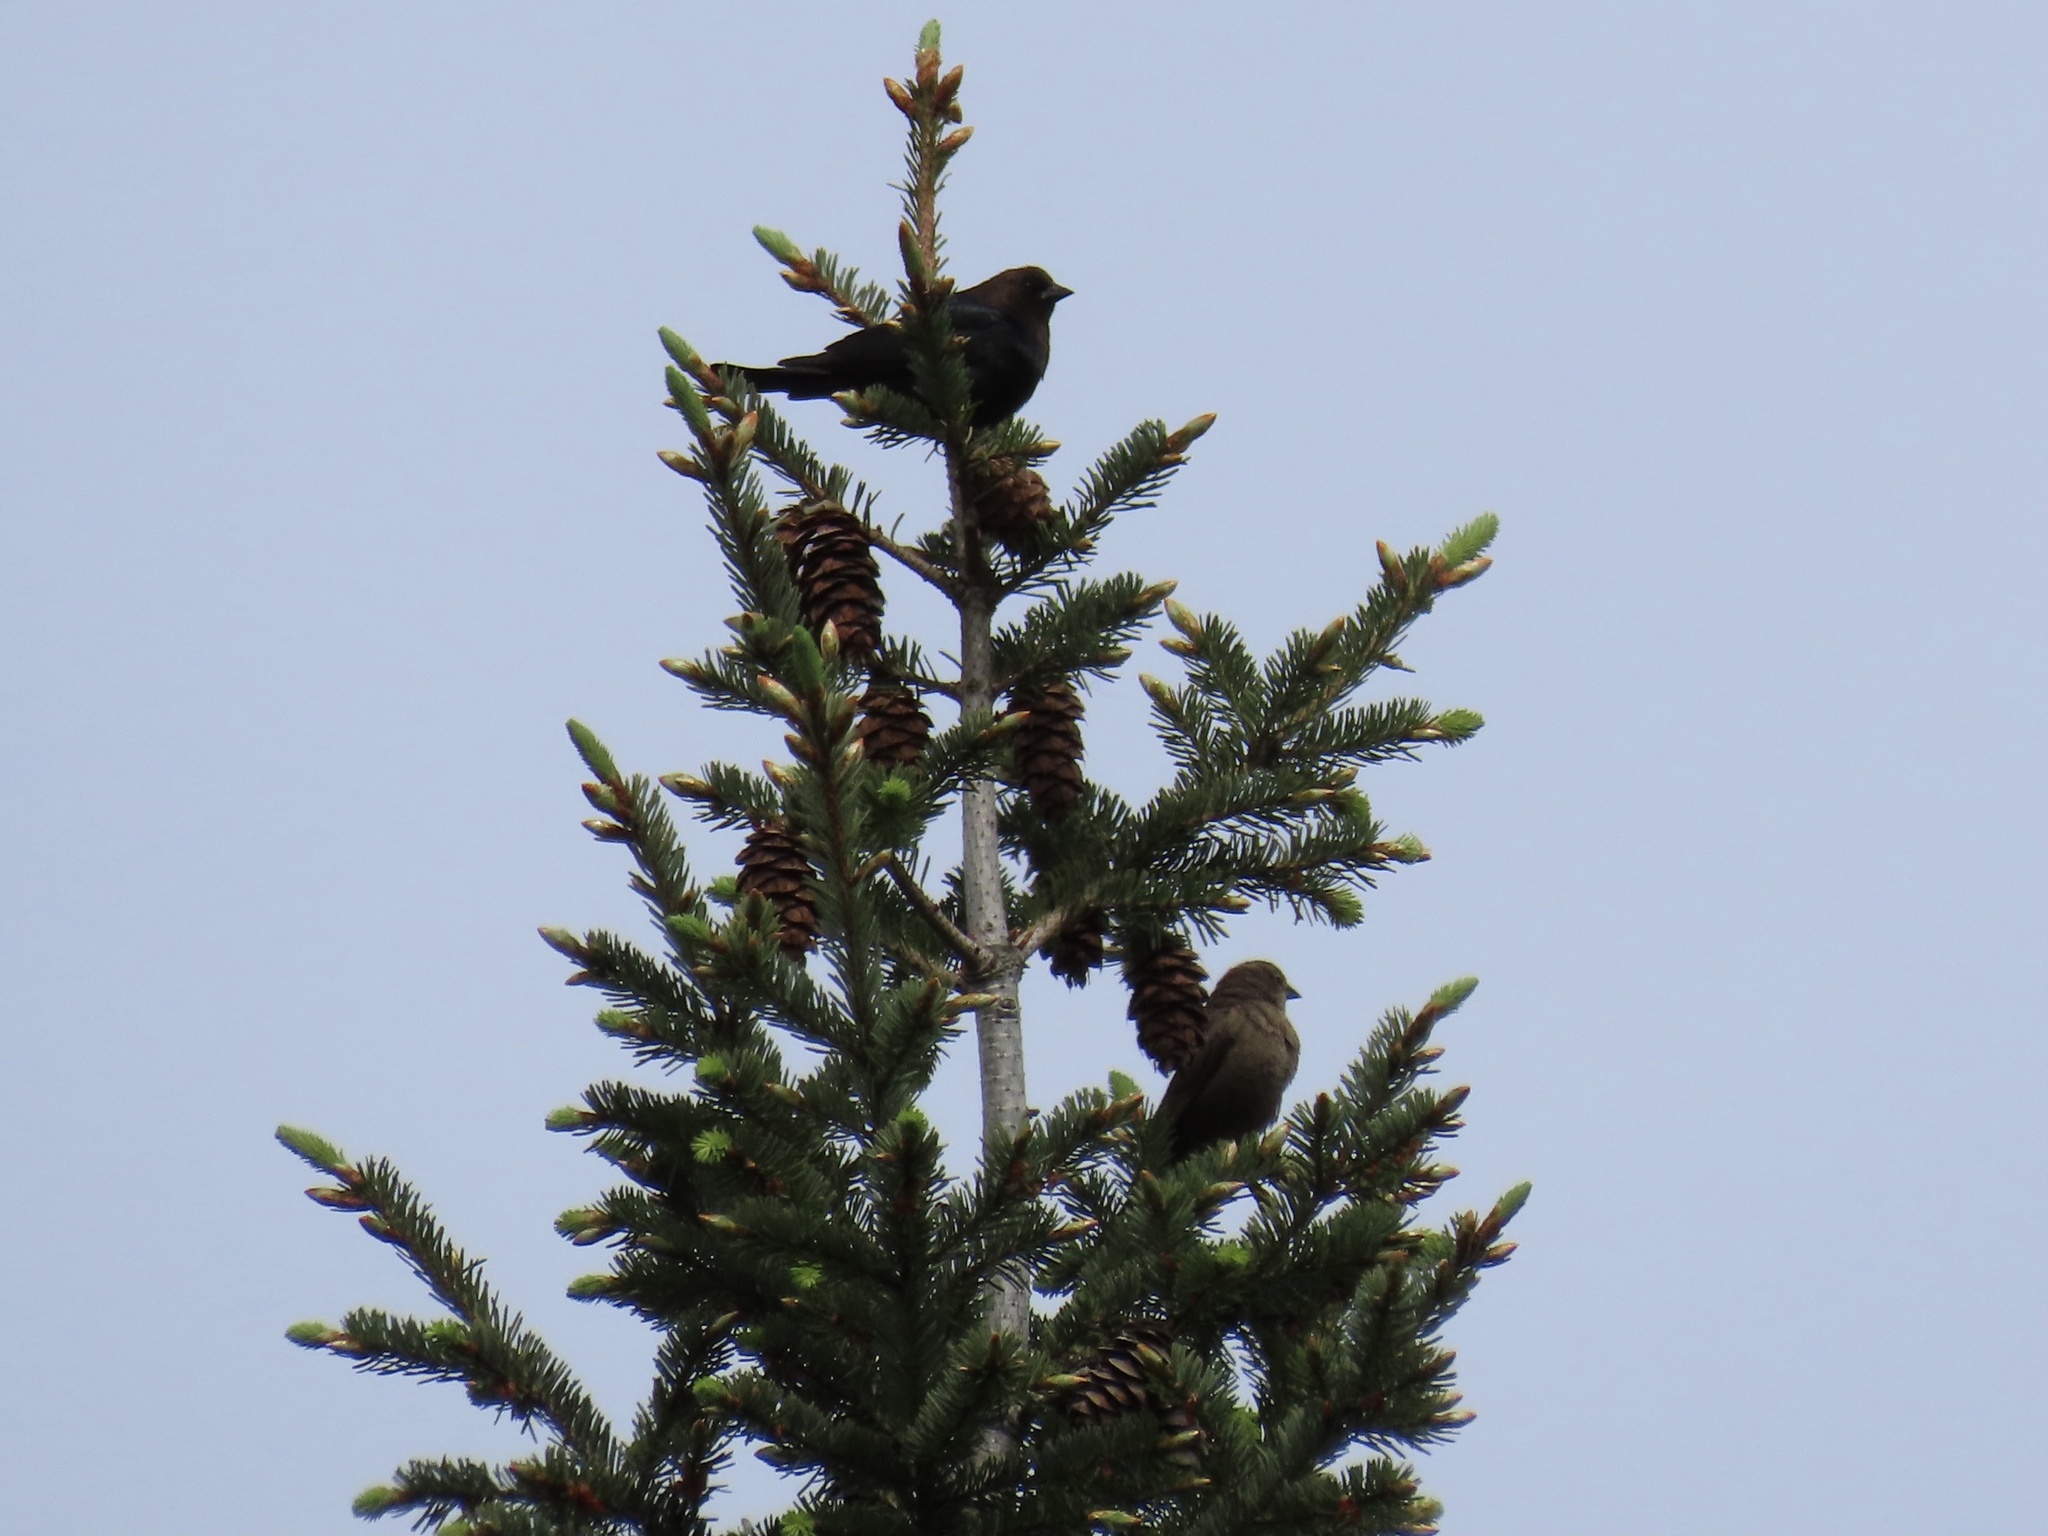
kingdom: Animalia
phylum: Chordata
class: Aves
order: Passeriformes
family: Icteridae
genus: Molothrus
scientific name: Molothrus ater
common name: Brown-headed cowbird
